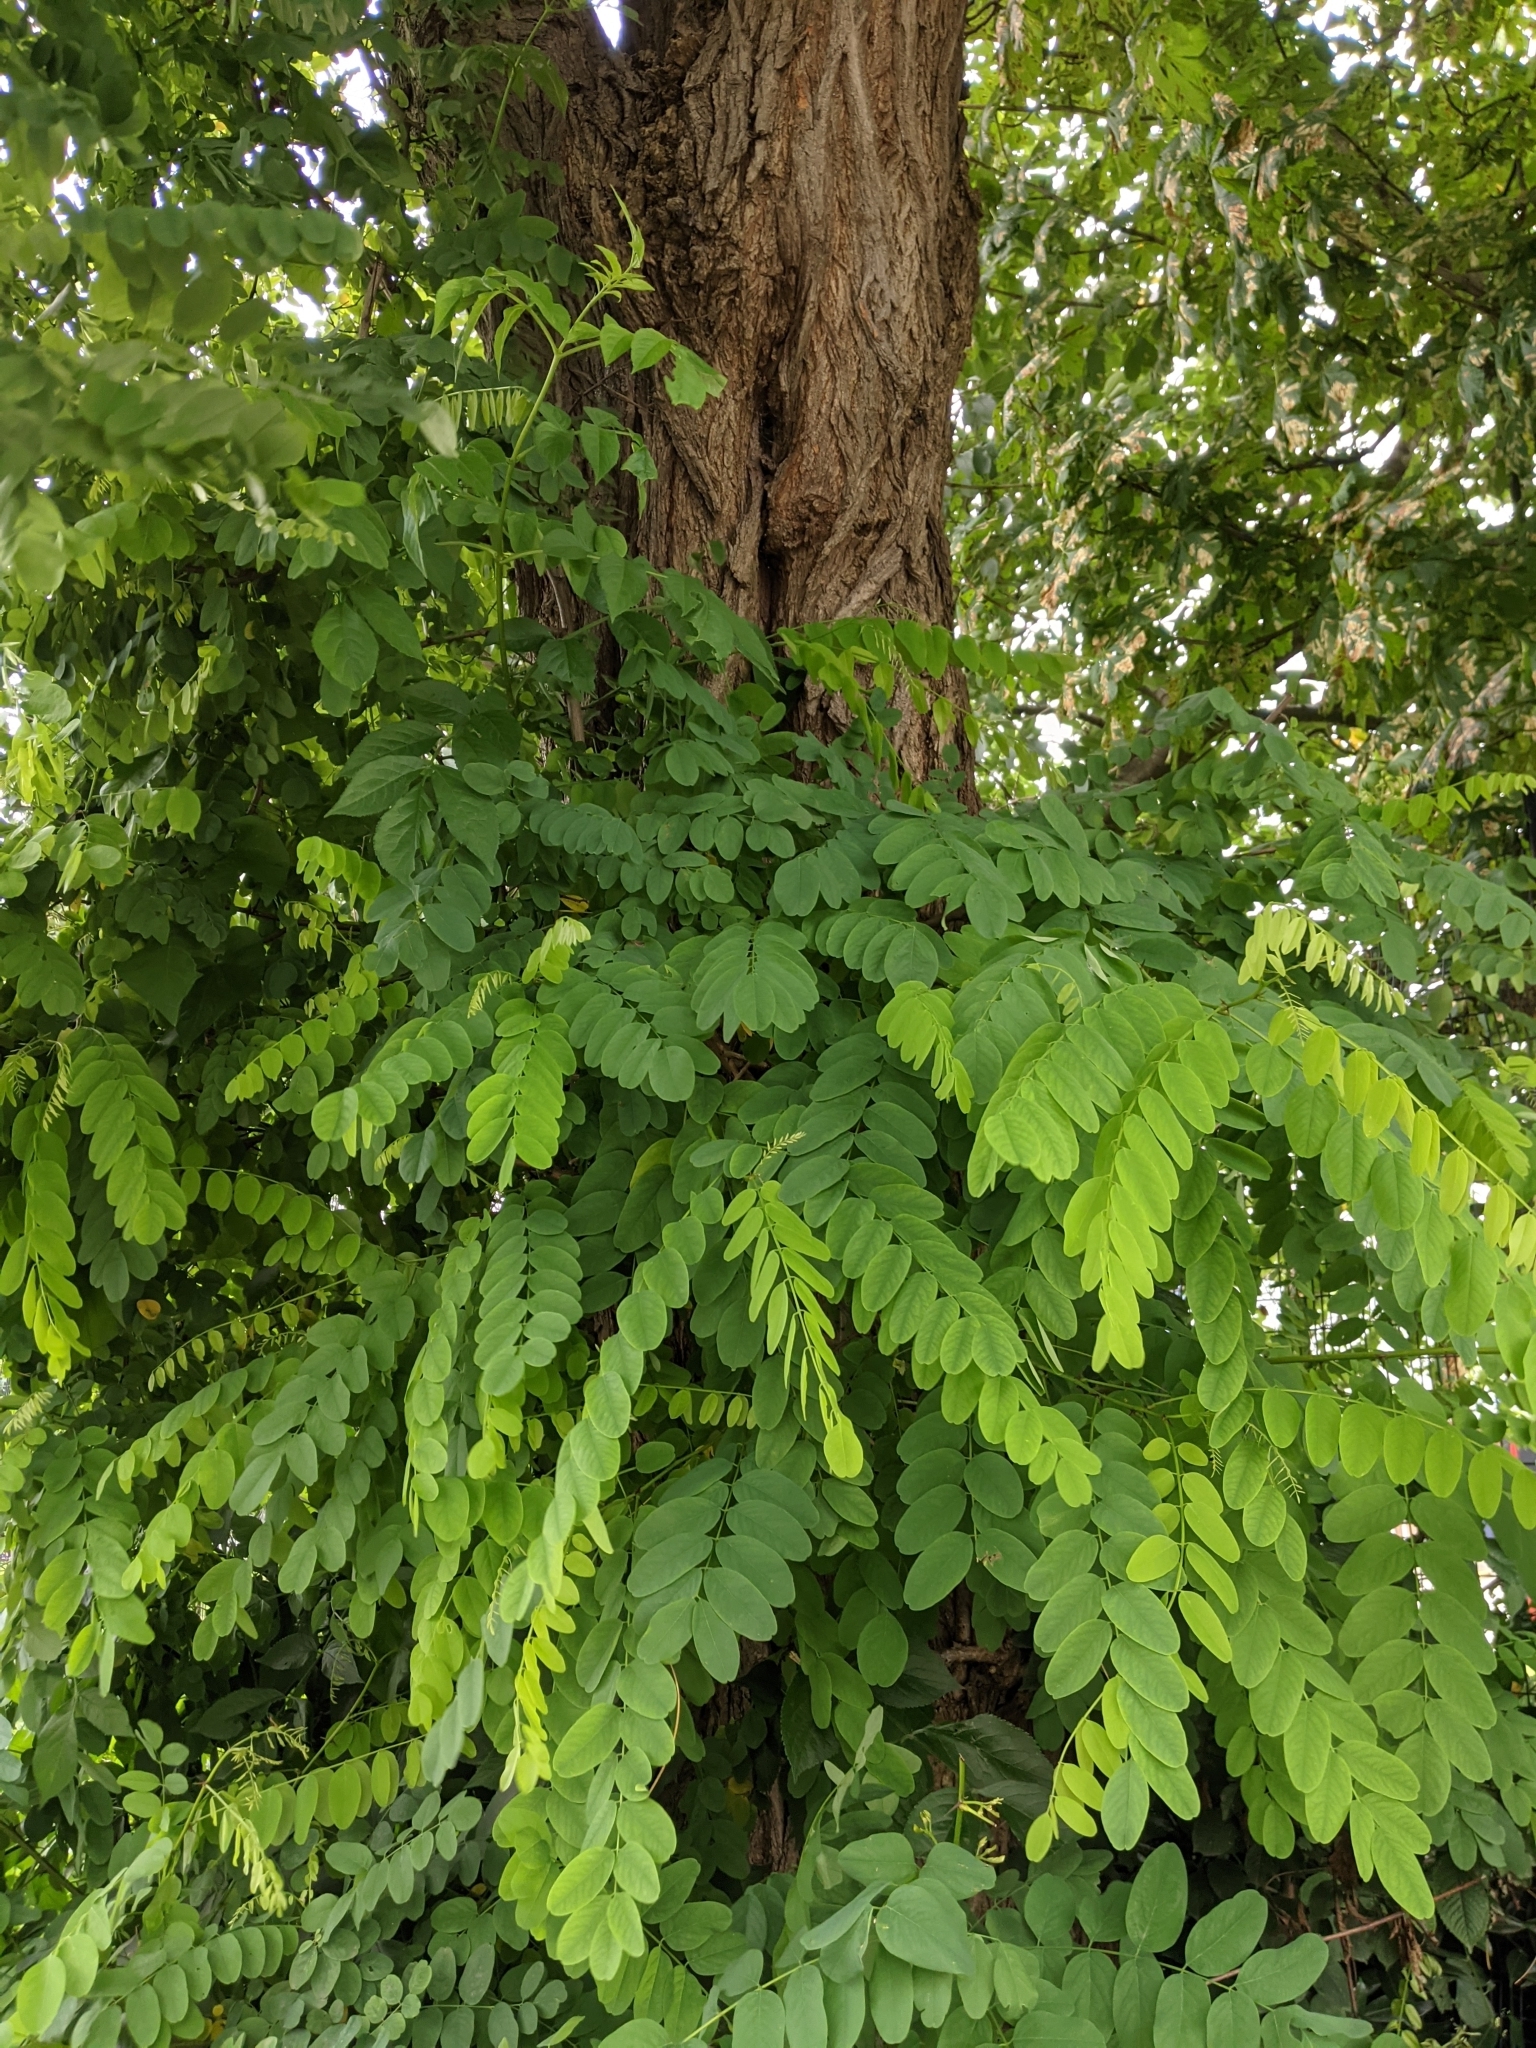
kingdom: Plantae
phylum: Tracheophyta
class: Magnoliopsida
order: Fabales
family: Fabaceae
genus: Robinia
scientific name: Robinia pseudoacacia
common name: Black locust
